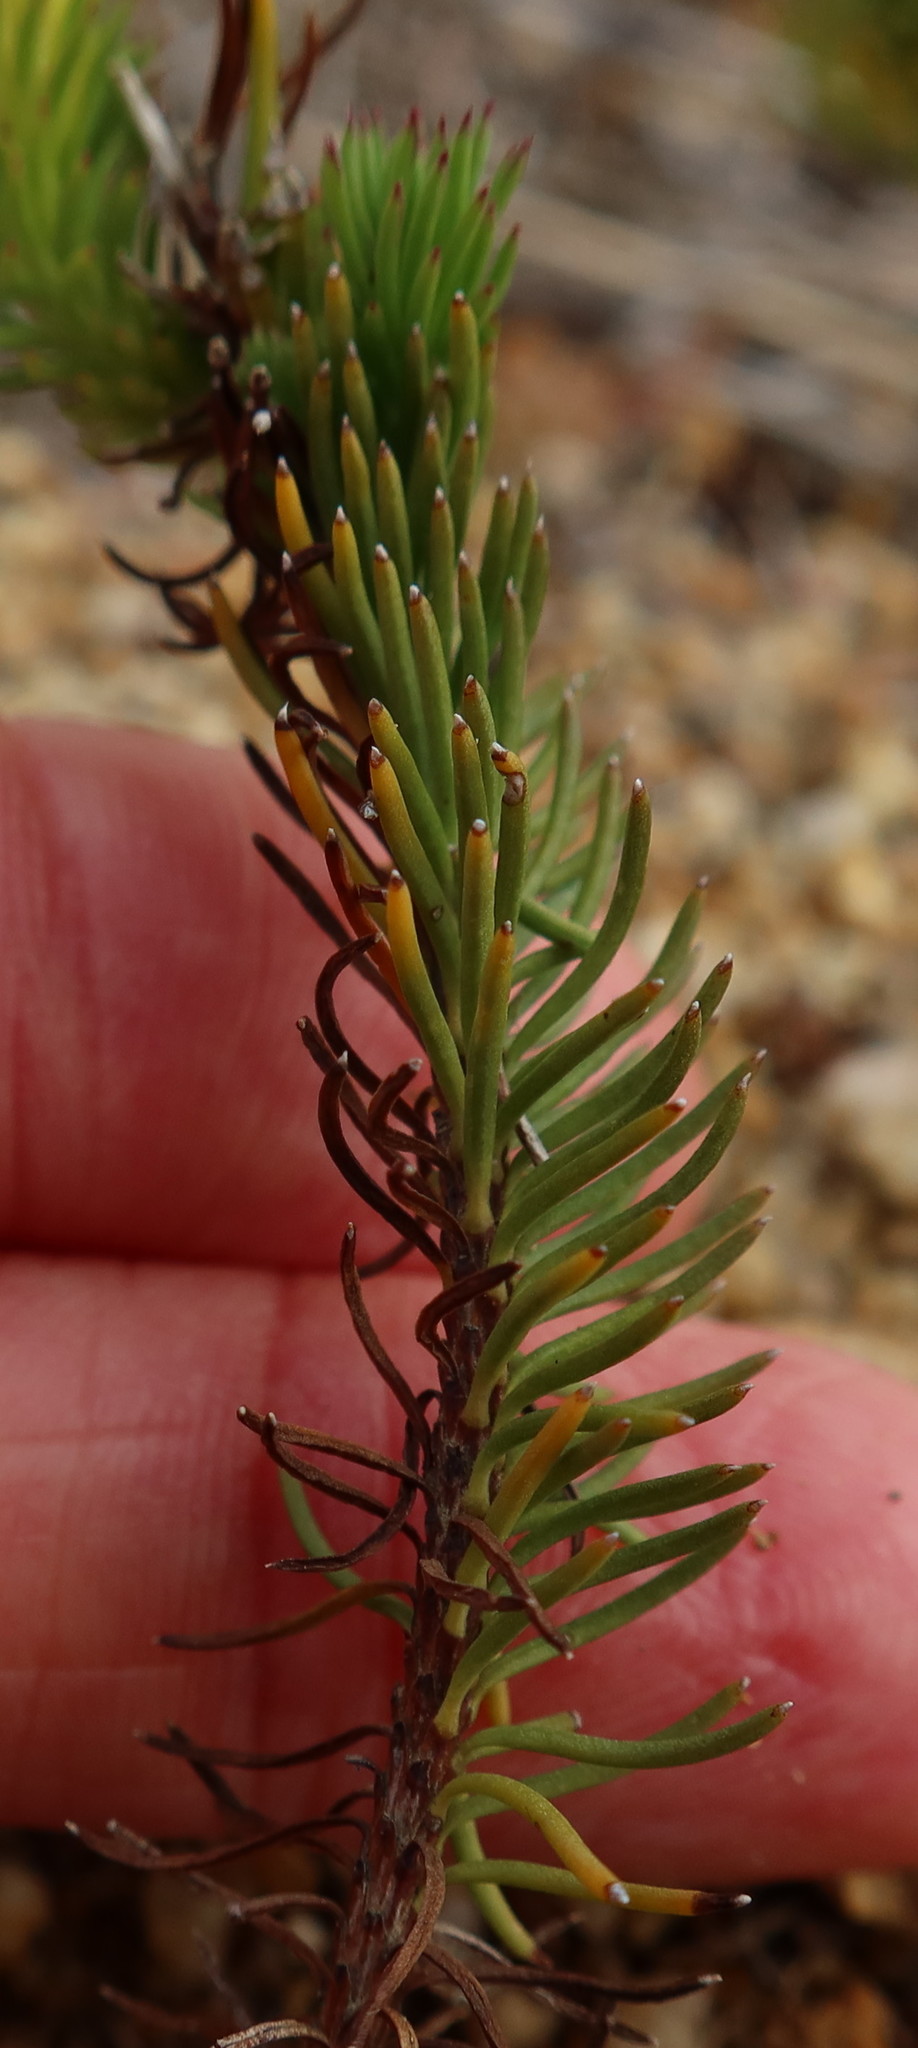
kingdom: Plantae
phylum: Tracheophyta
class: Magnoliopsida
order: Asterales
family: Asteraceae
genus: Senecio
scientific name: Senecio pinifolius
